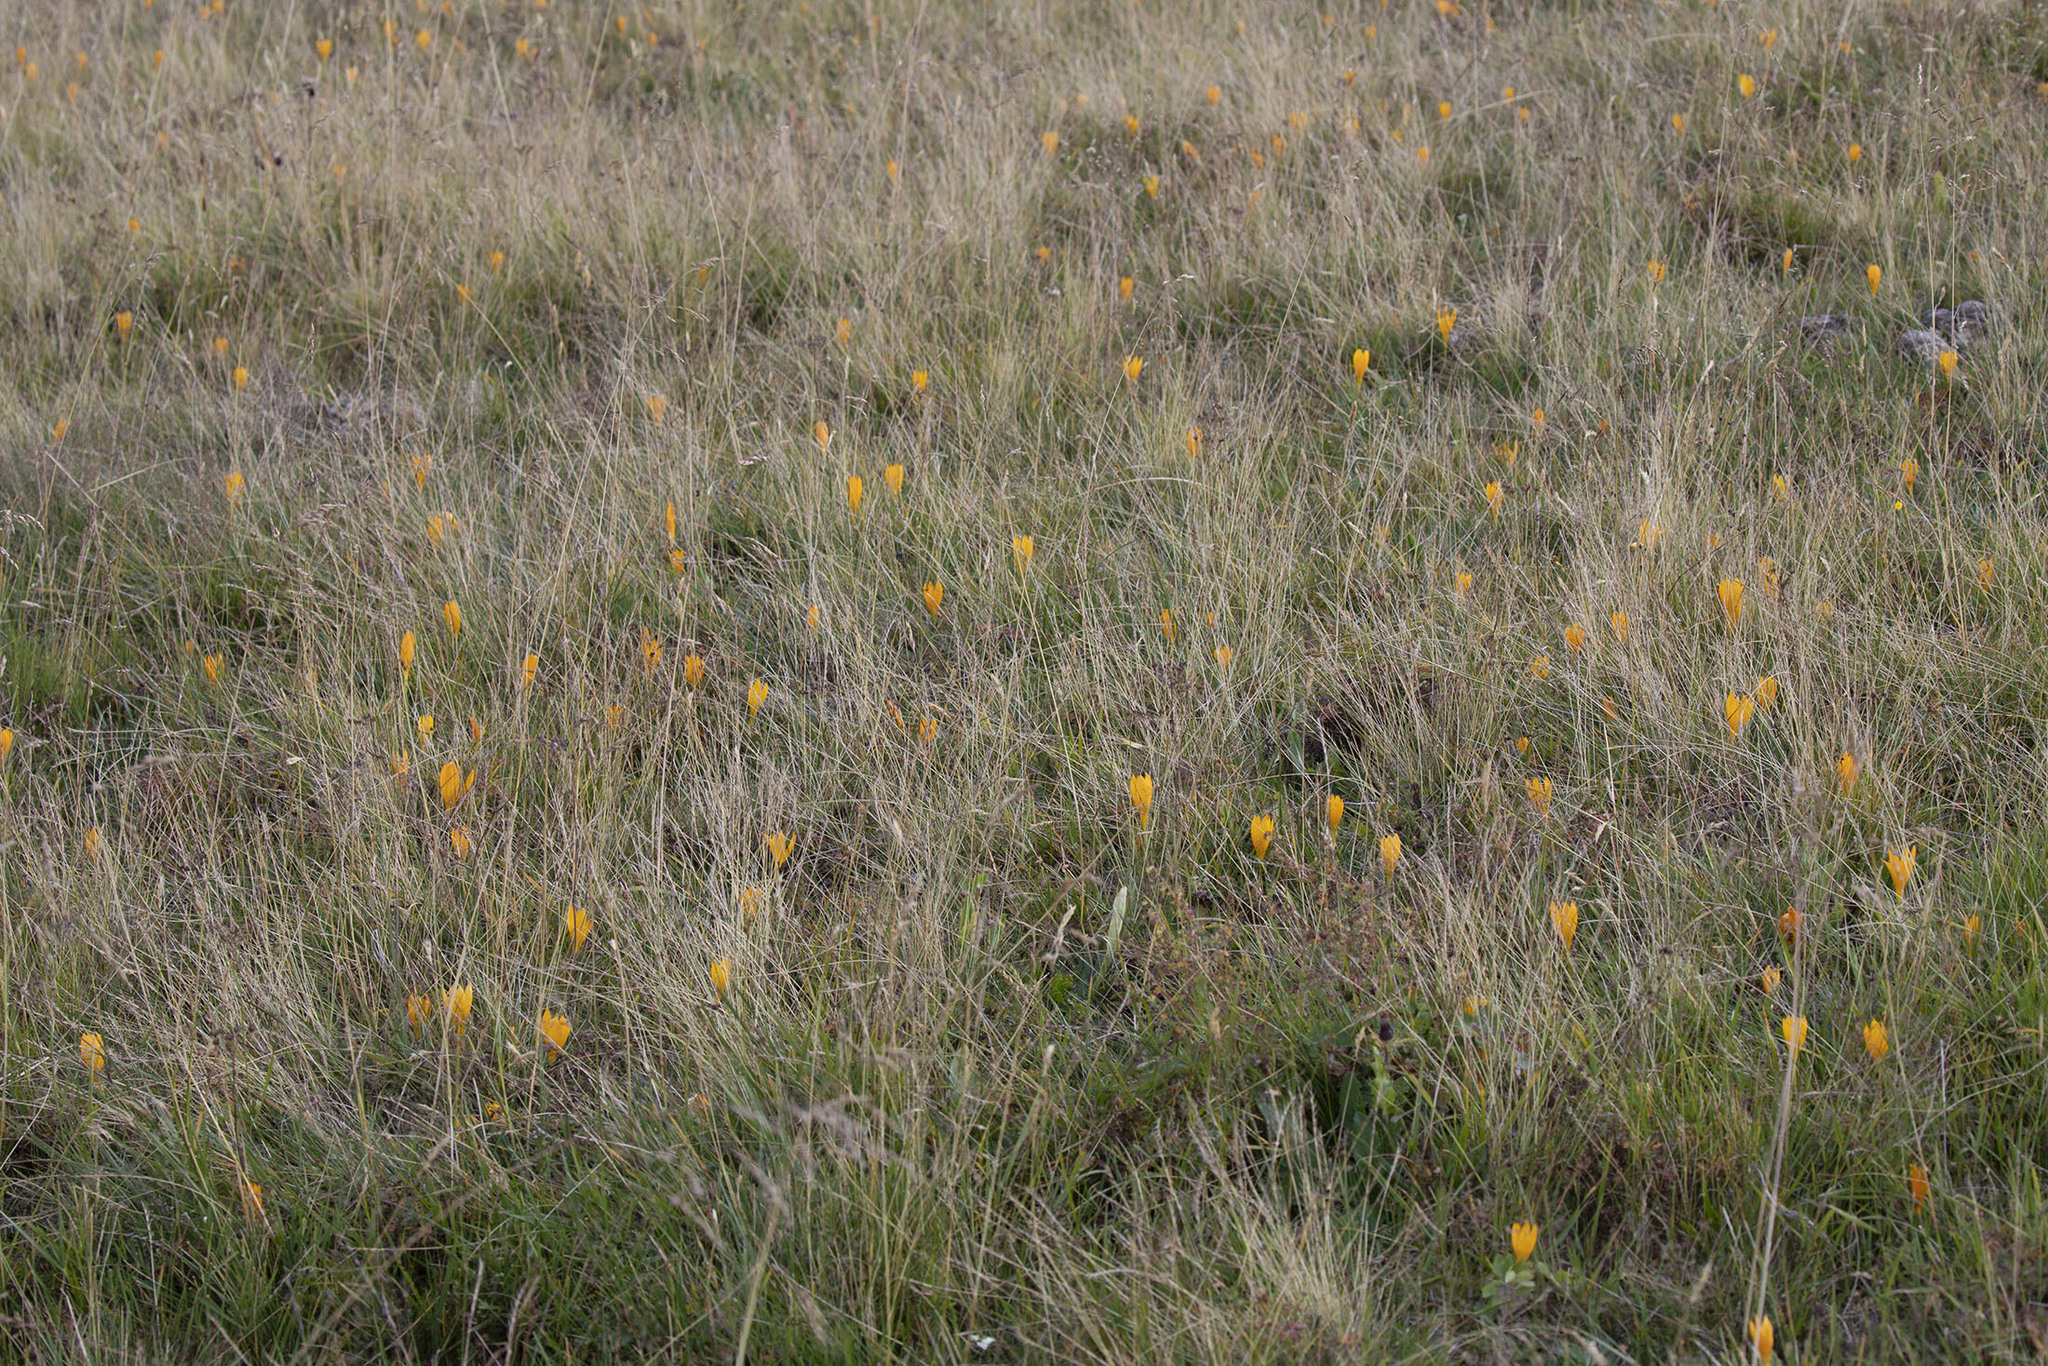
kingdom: Plantae
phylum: Tracheophyta
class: Liliopsida
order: Asparagales
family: Iridaceae
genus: Crocus
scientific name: Crocus scharojanii
